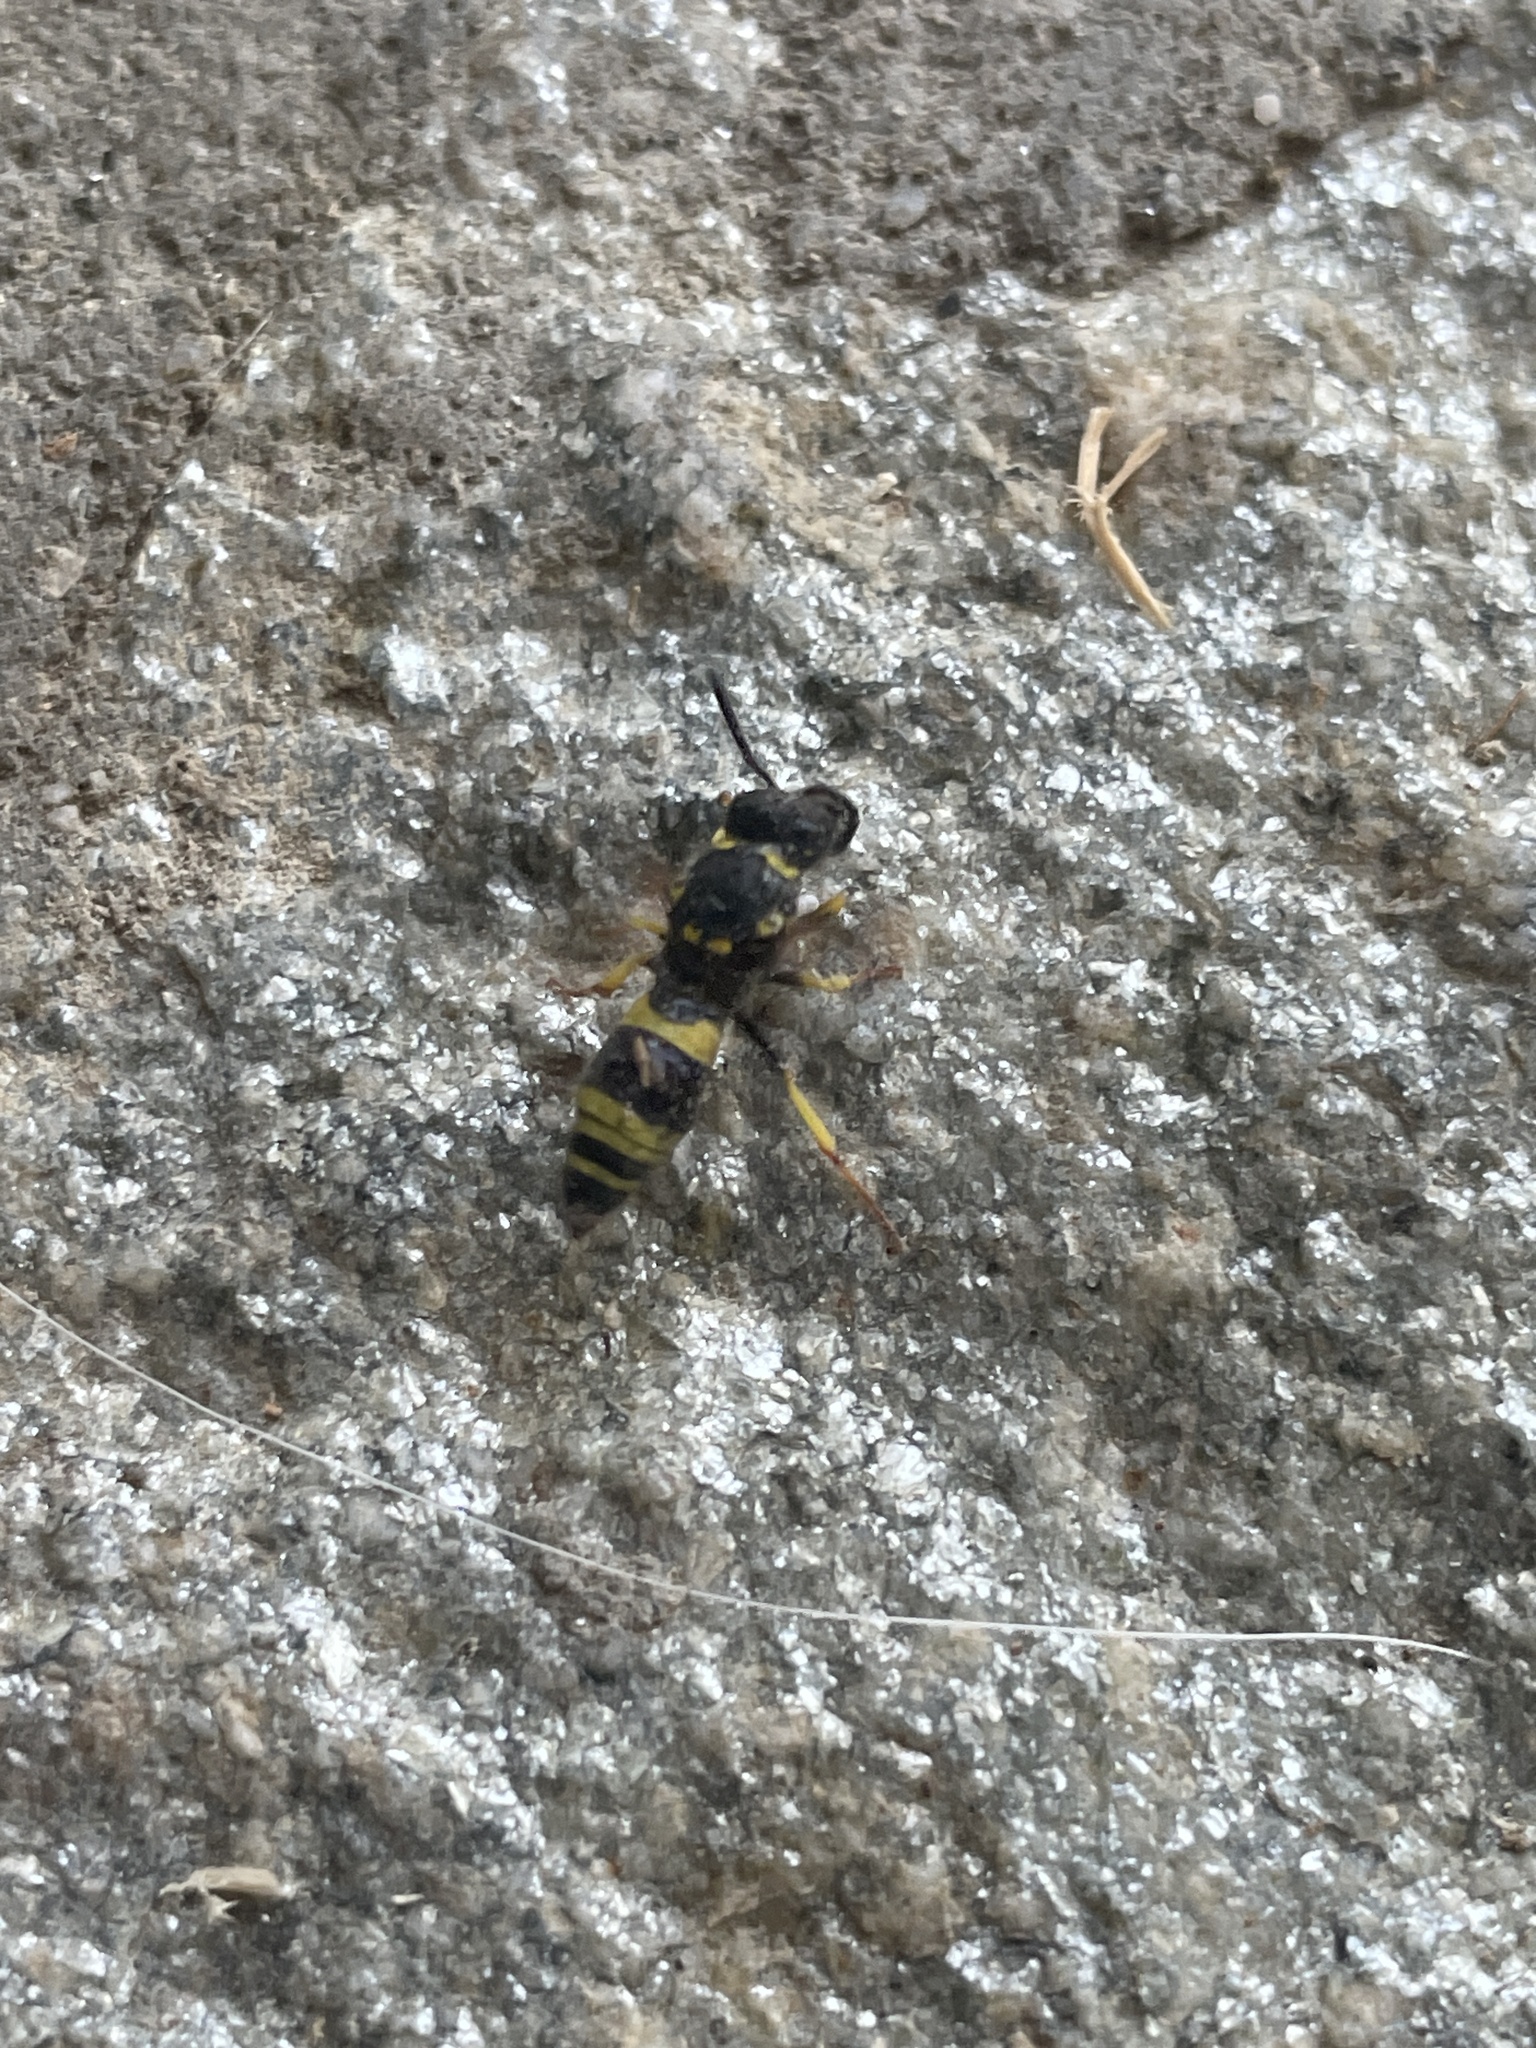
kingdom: Animalia
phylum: Arthropoda
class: Insecta
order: Hymenoptera
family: Vespidae
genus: Ancistrocerus
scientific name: Ancistrocerus longispinosus
